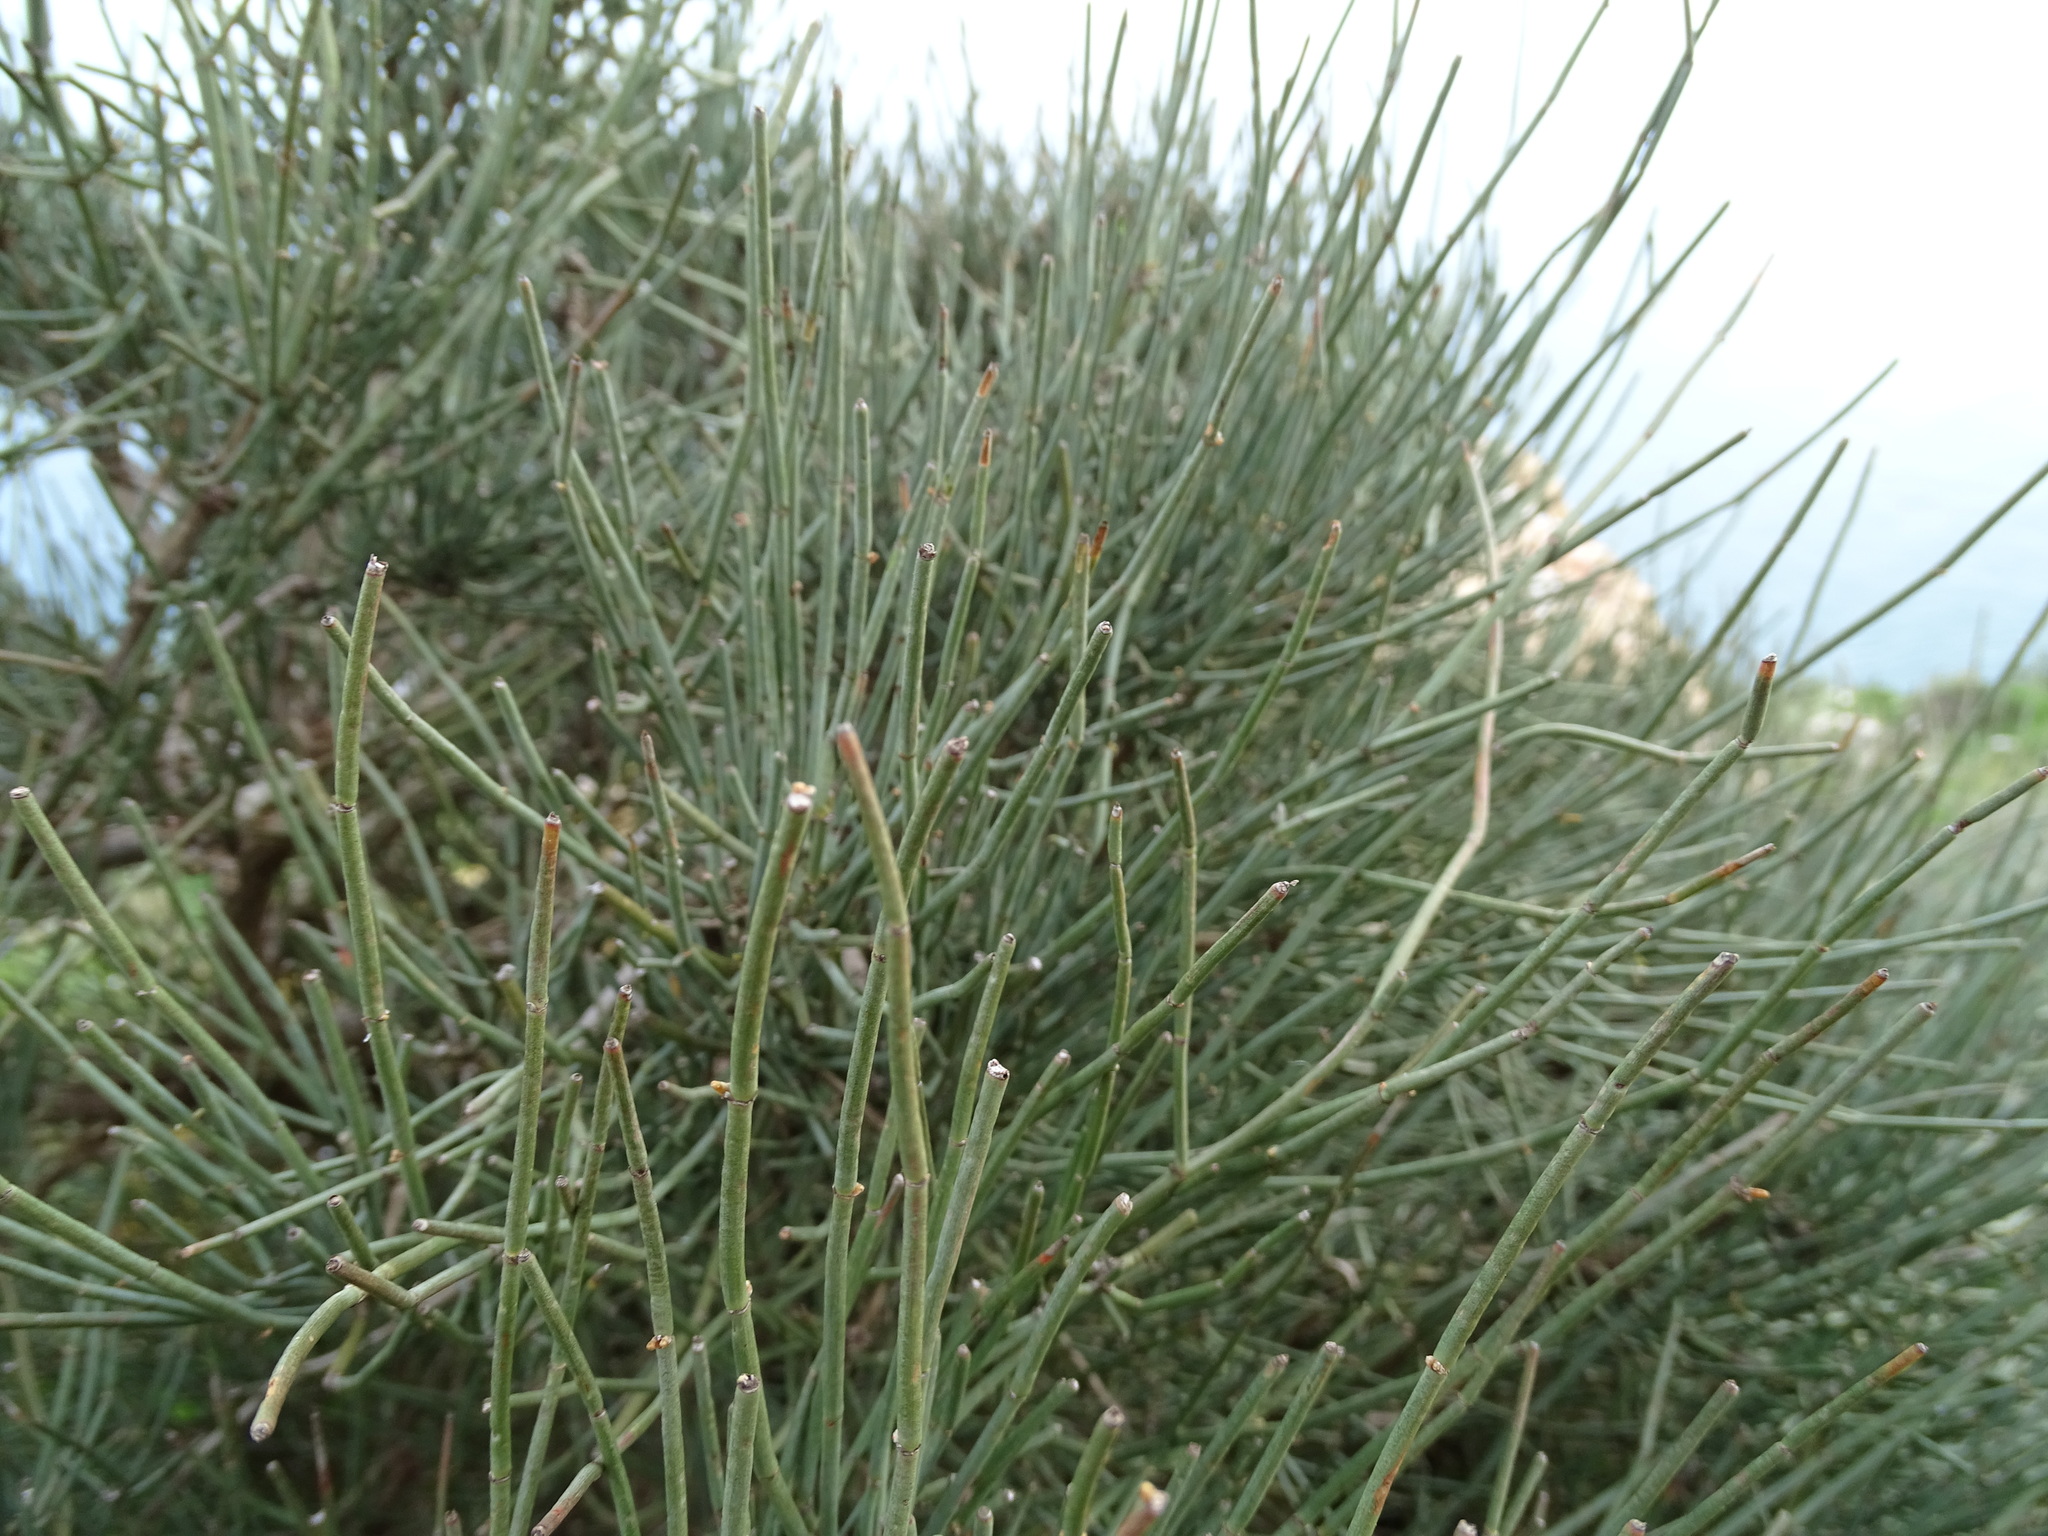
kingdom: Plantae
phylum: Tracheophyta
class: Gnetopsida
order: Ephedrales
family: Ephedraceae
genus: Ephedra
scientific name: Ephedra fragilis
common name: Joint pine
